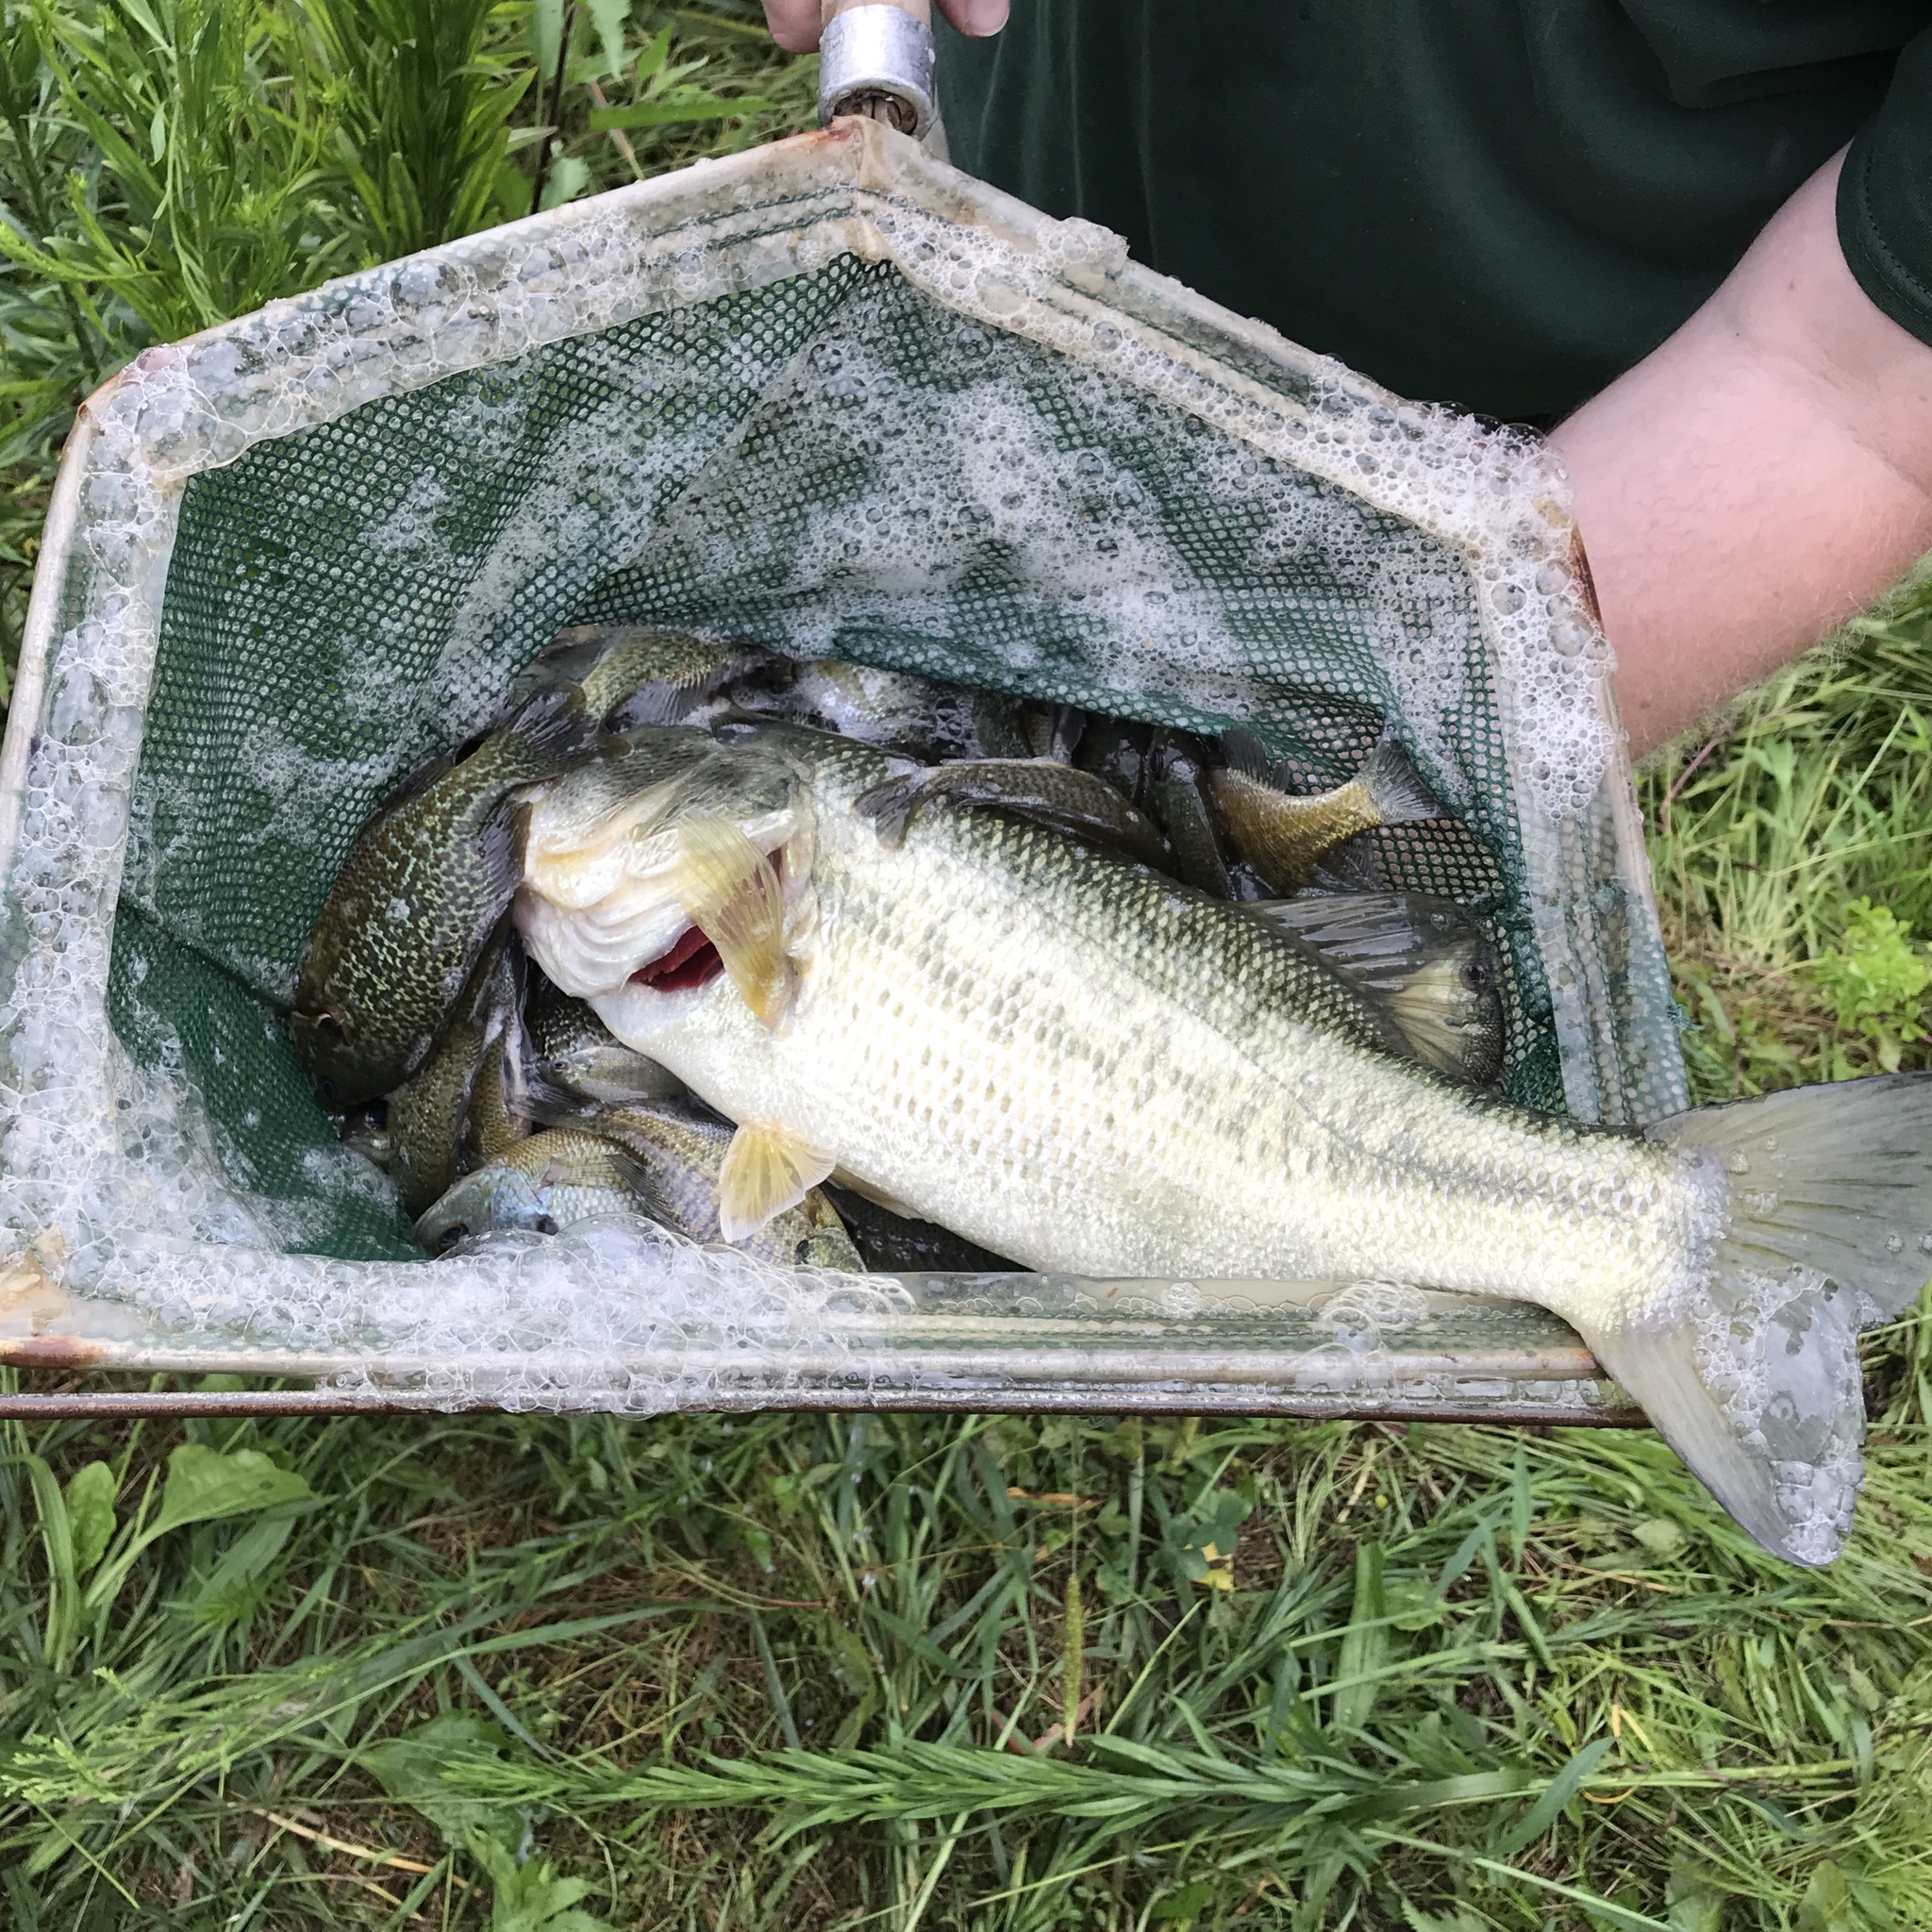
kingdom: Animalia
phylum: Chordata
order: Perciformes
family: Centrarchidae
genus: Micropterus
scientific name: Micropterus
